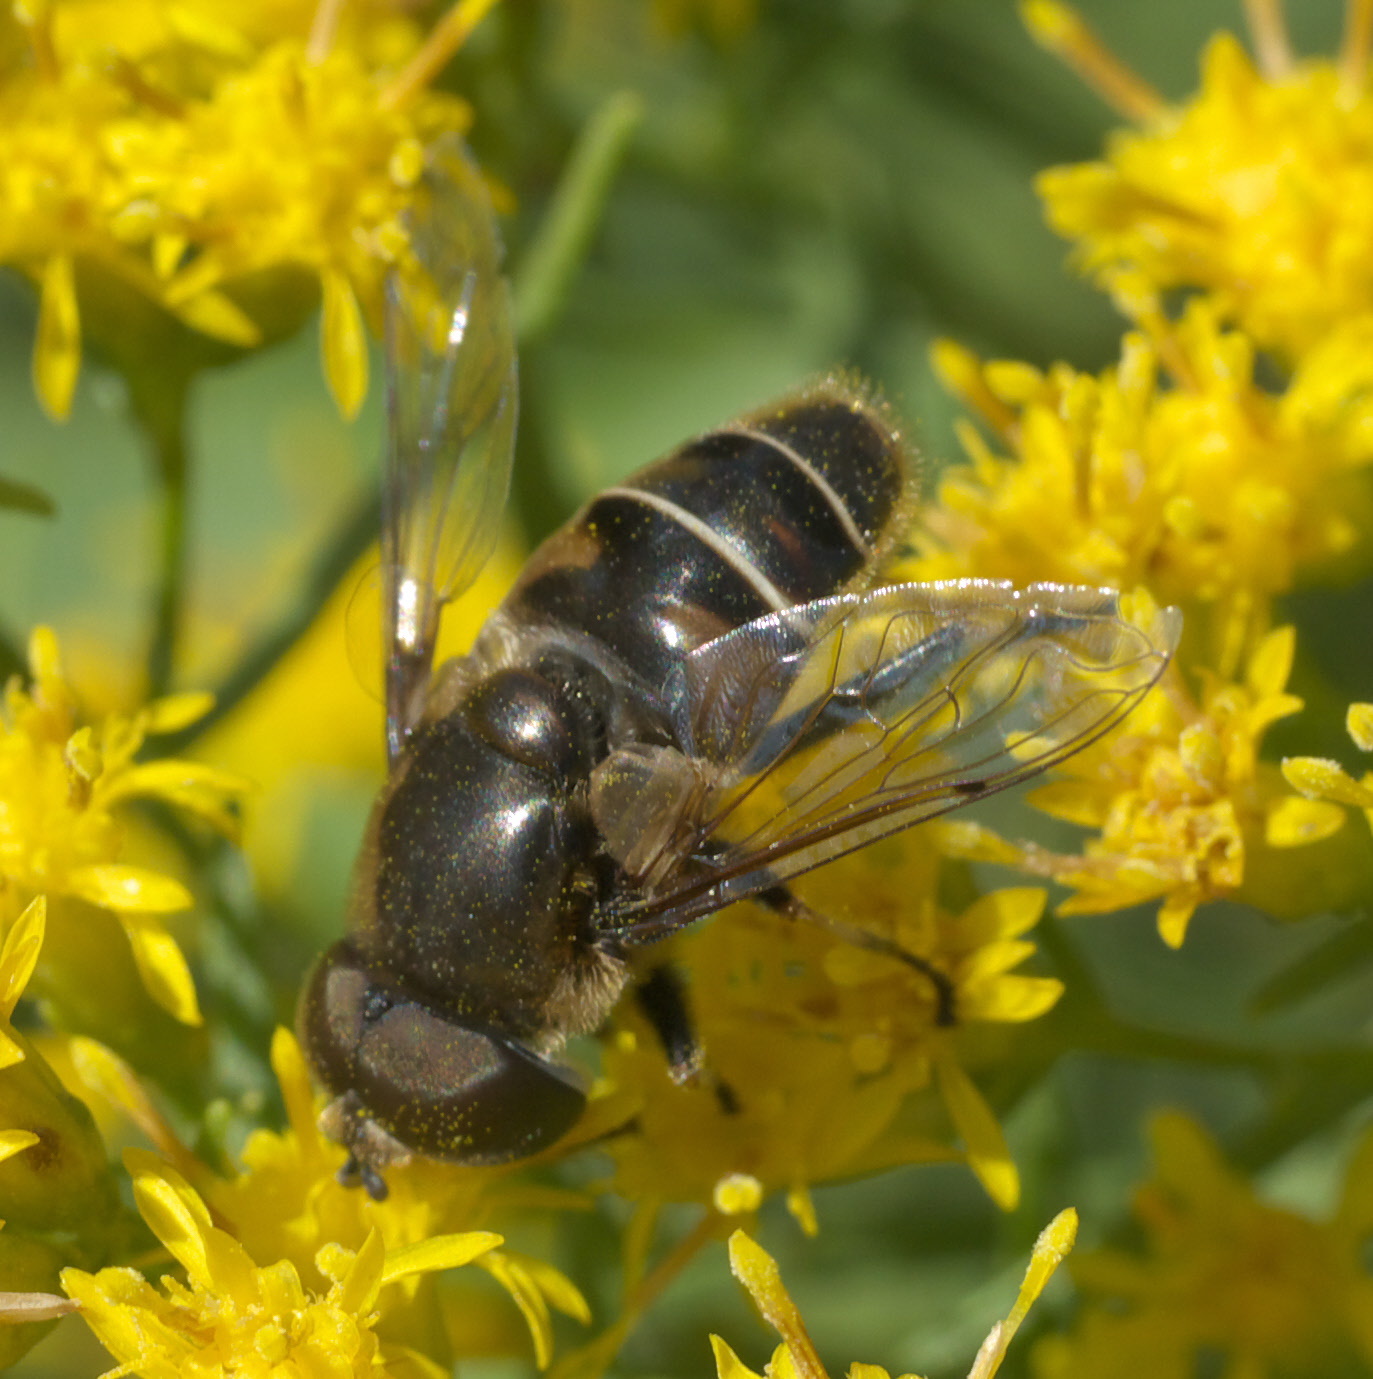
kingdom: Animalia
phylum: Arthropoda
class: Insecta
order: Diptera
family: Syrphidae
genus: Eristalis
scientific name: Eristalis dimidiata
